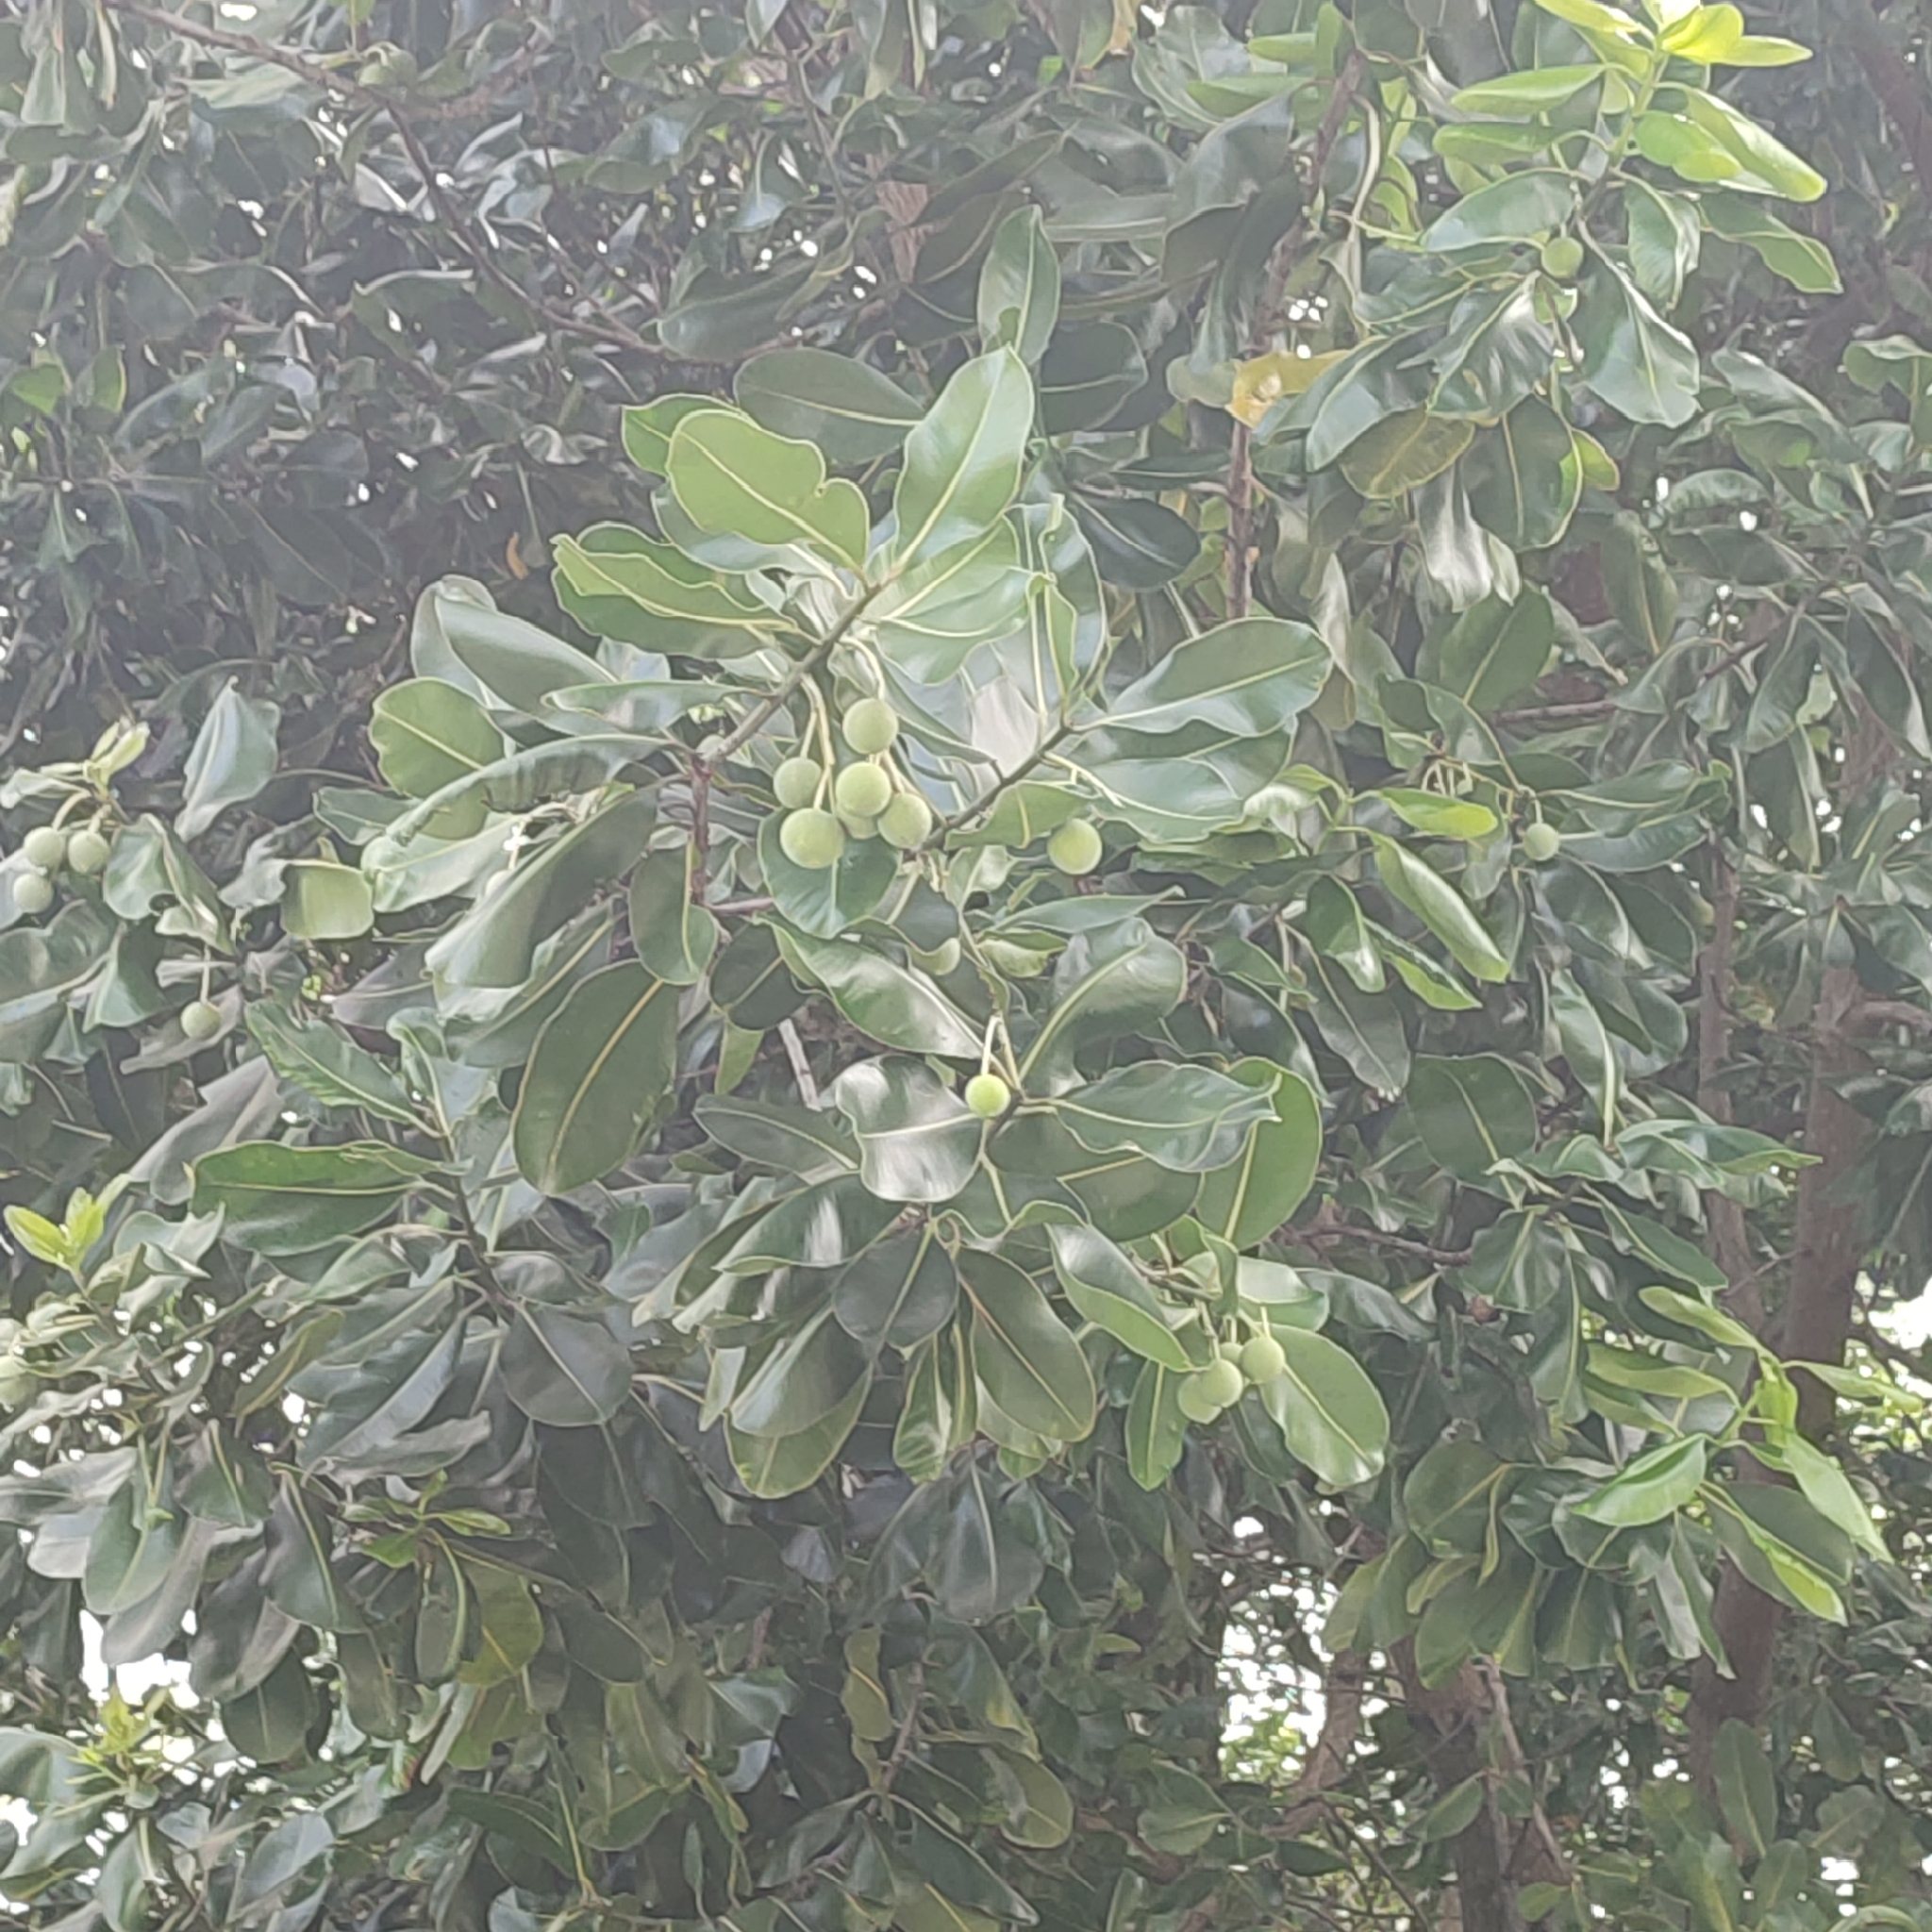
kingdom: Plantae
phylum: Tracheophyta
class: Magnoliopsida
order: Malpighiales
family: Calophyllaceae
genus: Calophyllum
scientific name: Calophyllum inophyllum
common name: Alexandrian laurel
